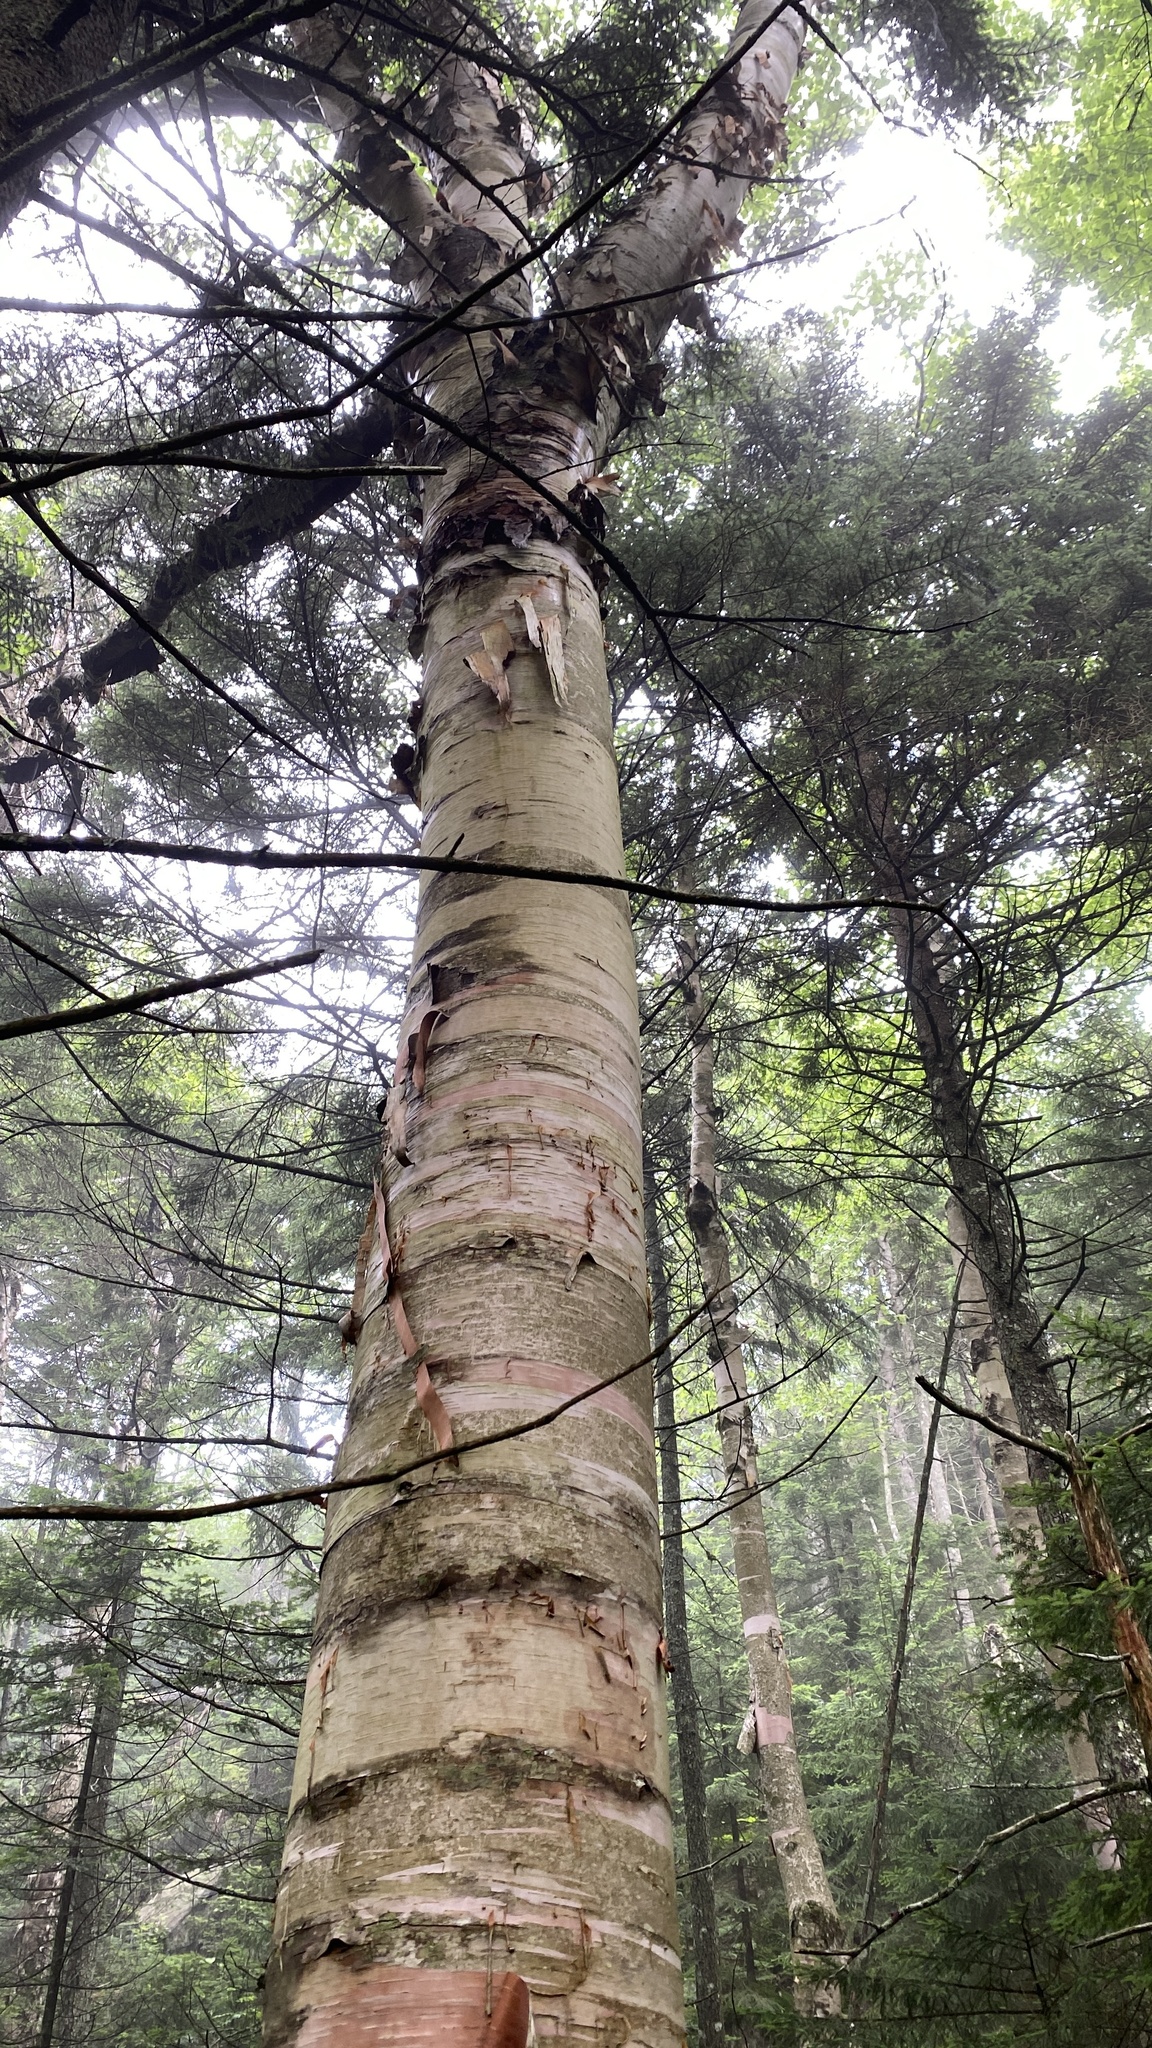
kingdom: Plantae
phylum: Tracheophyta
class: Magnoliopsida
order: Fagales
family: Betulaceae
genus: Betula
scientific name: Betula cordifolia
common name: Mountain white birch
